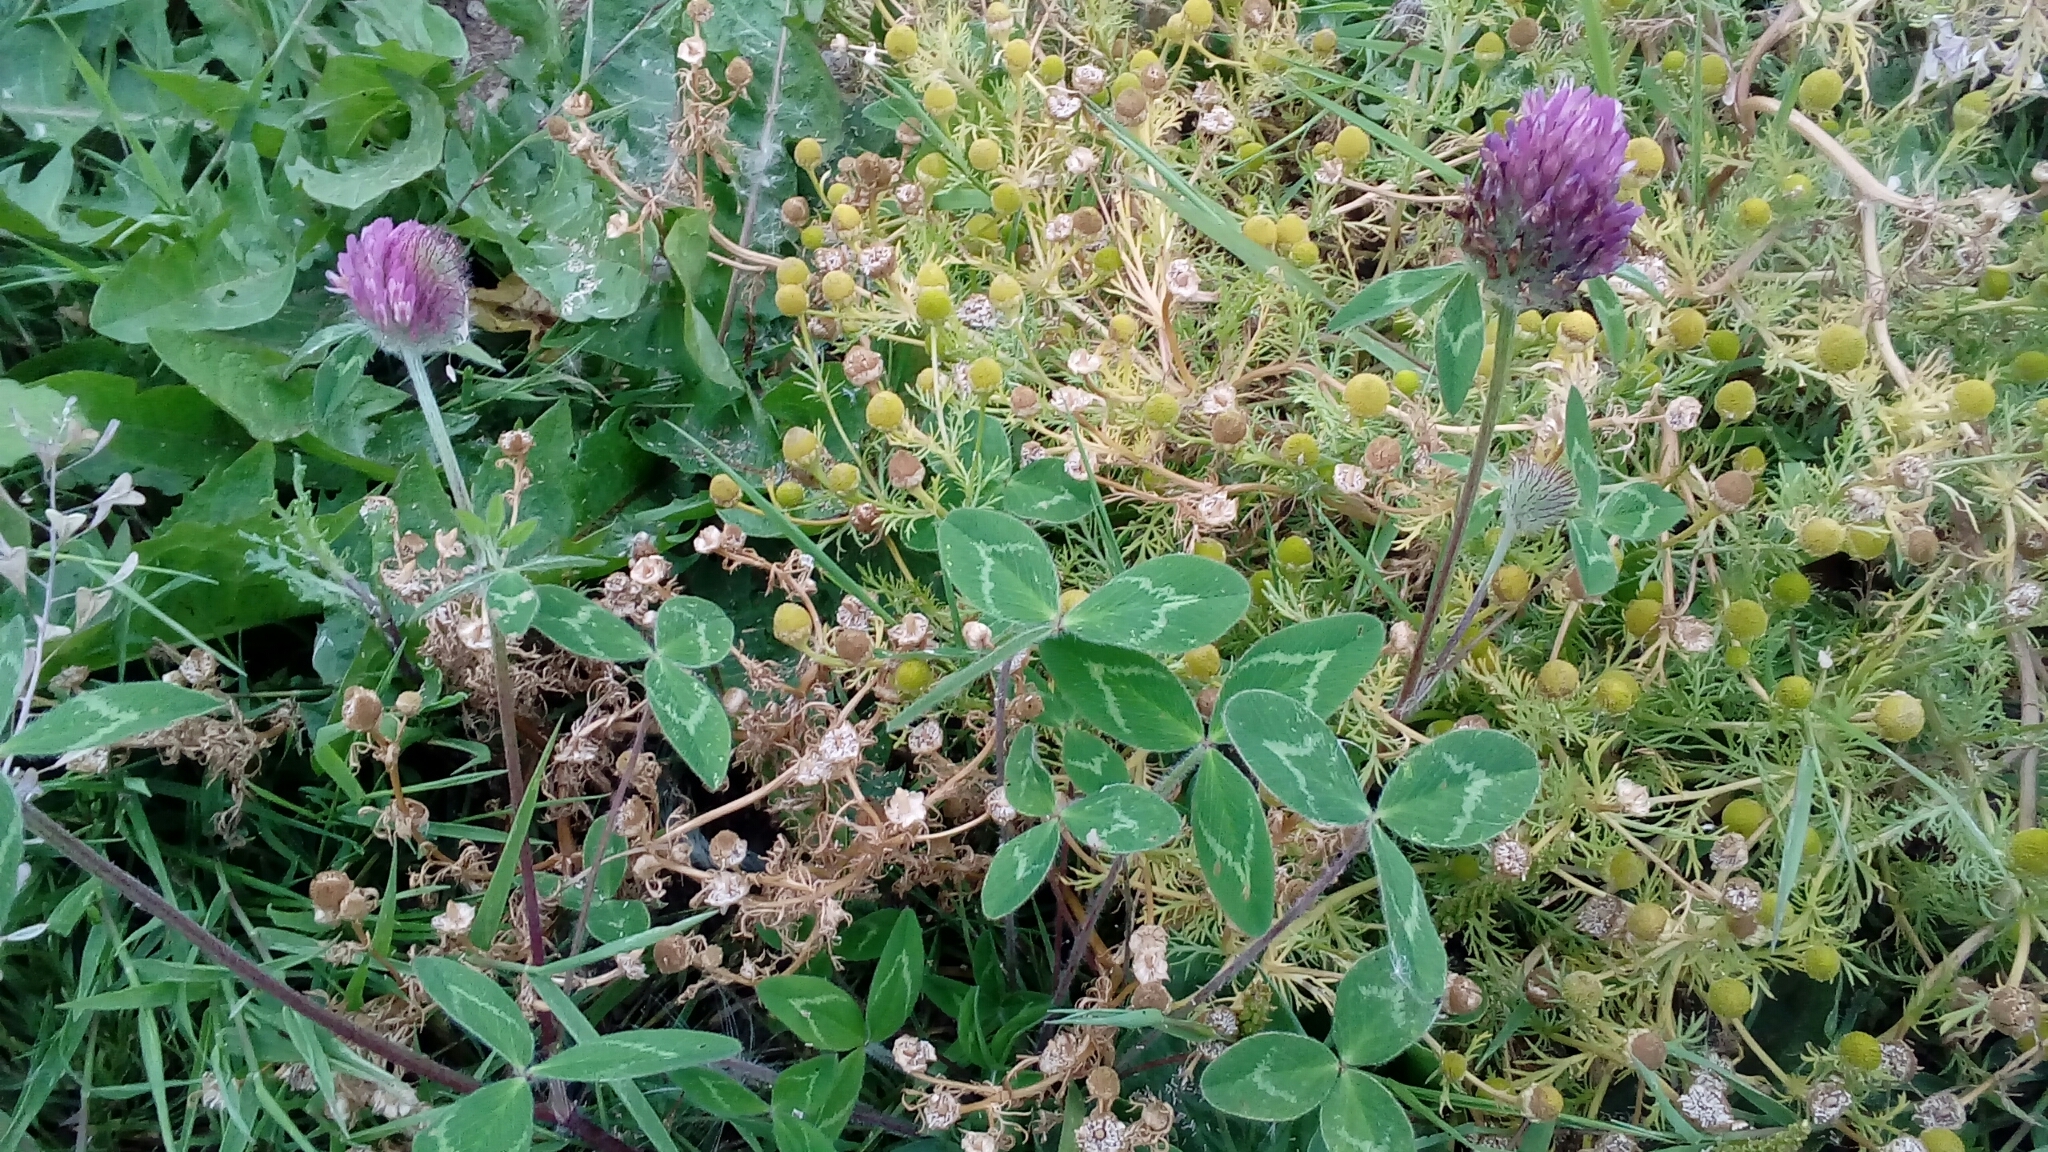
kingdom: Plantae
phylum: Tracheophyta
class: Magnoliopsida
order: Fabales
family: Fabaceae
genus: Trifolium
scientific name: Trifolium pratense
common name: Red clover
